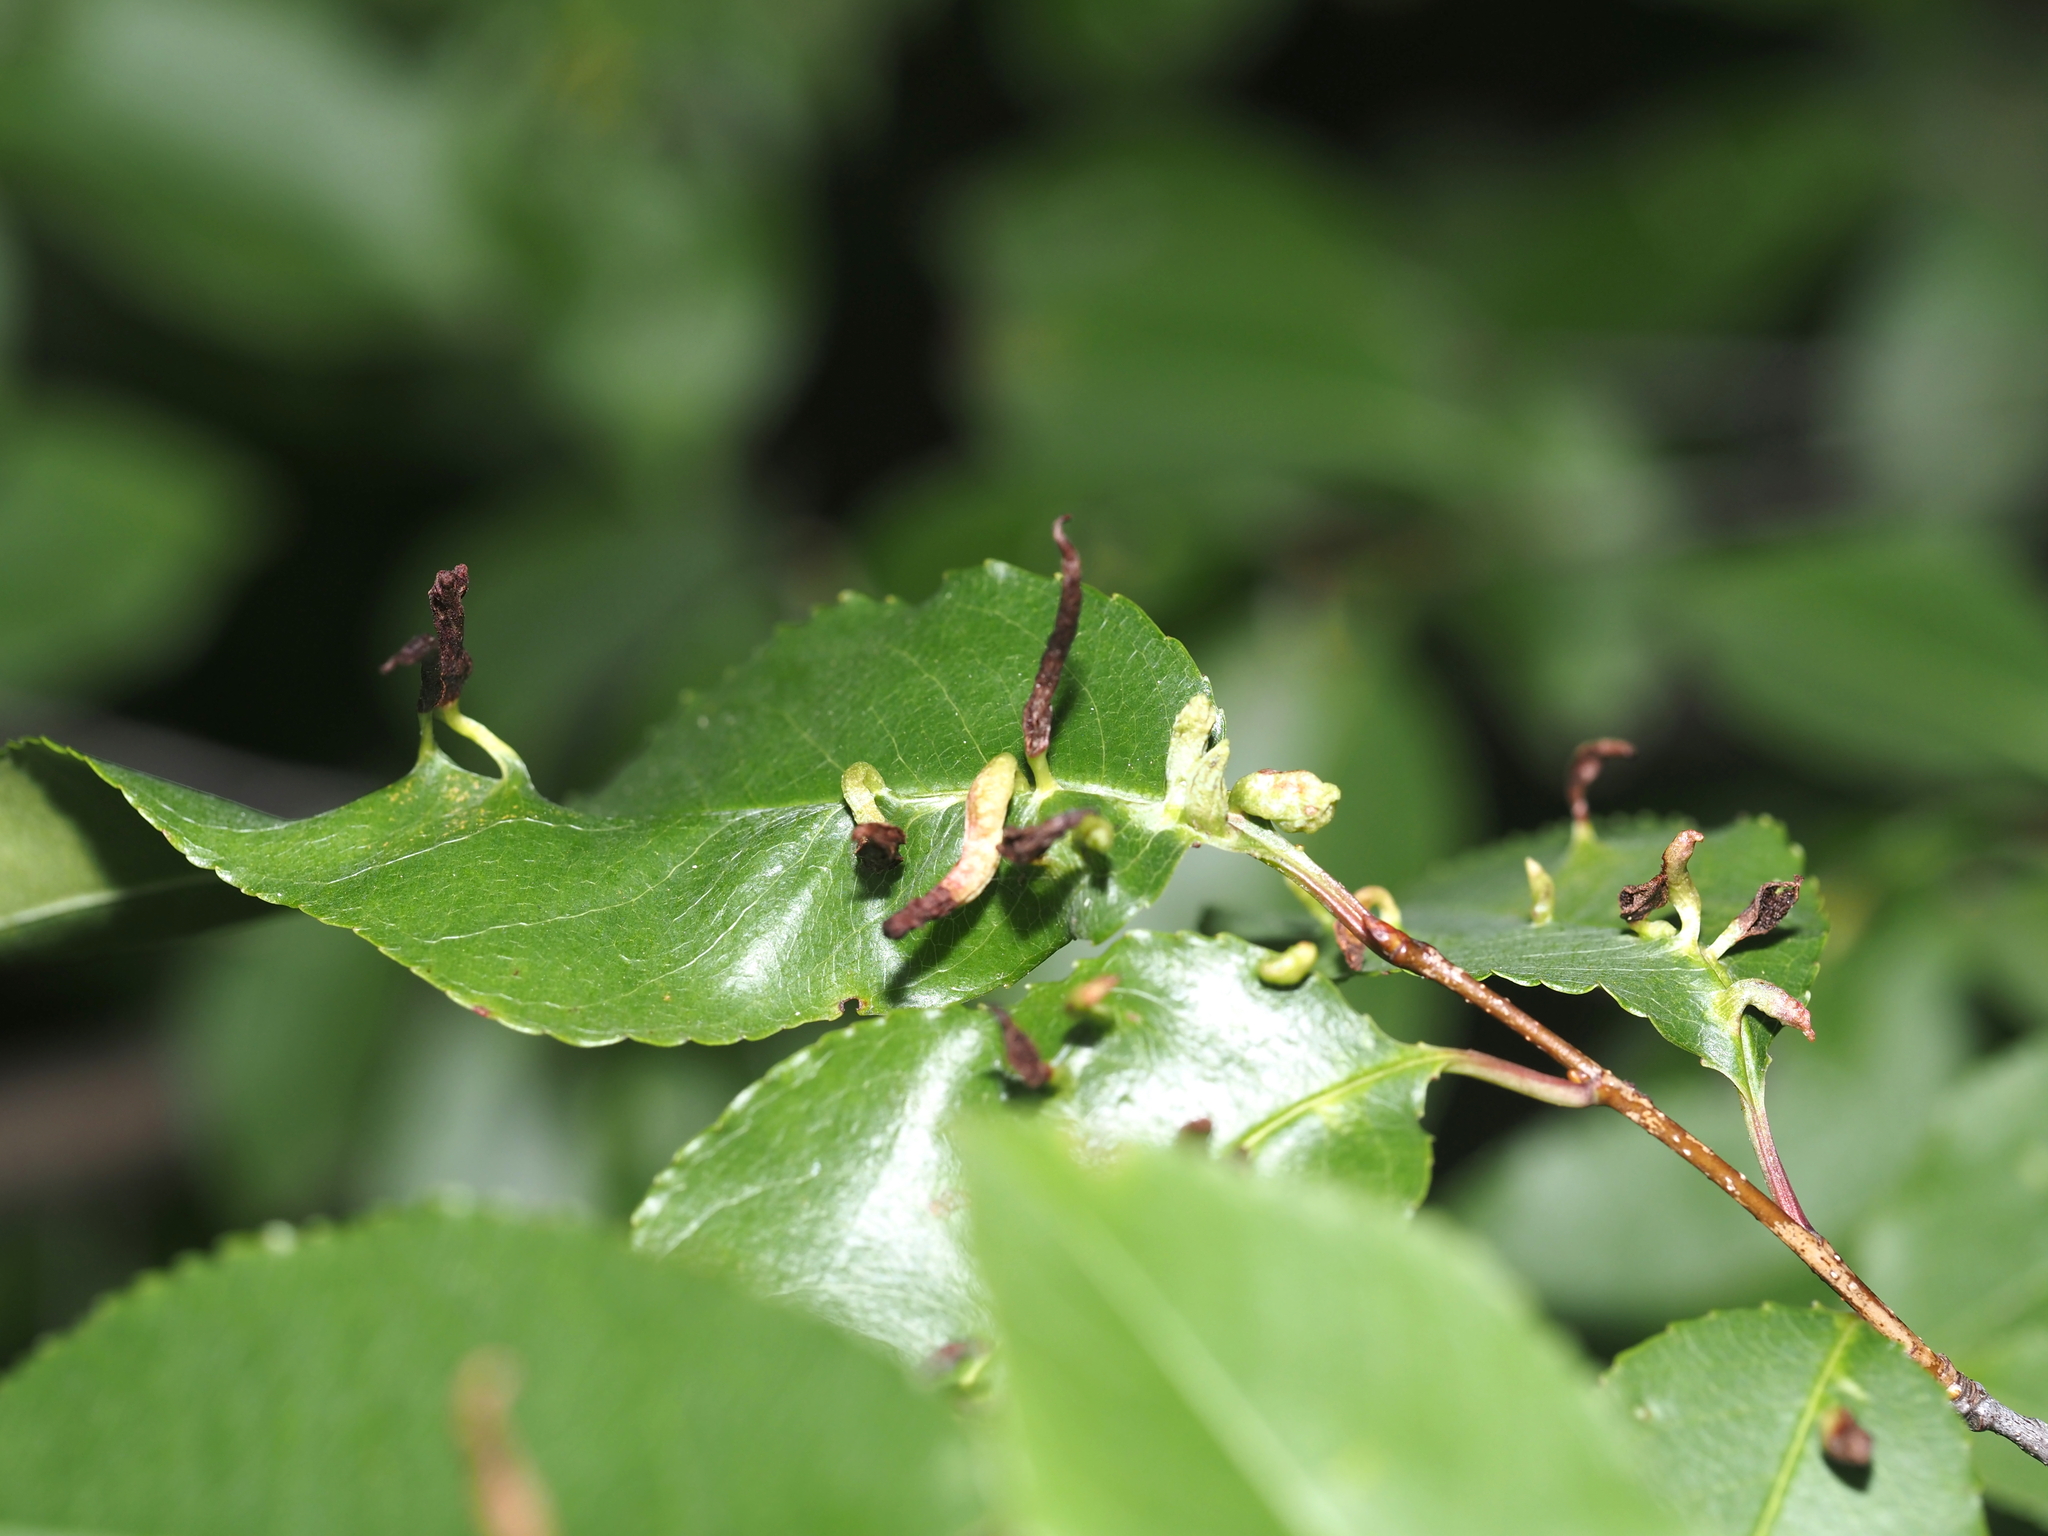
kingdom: Animalia
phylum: Arthropoda
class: Arachnida
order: Trombidiformes
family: Eriophyidae
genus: Eriophyes
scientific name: Eriophyes
